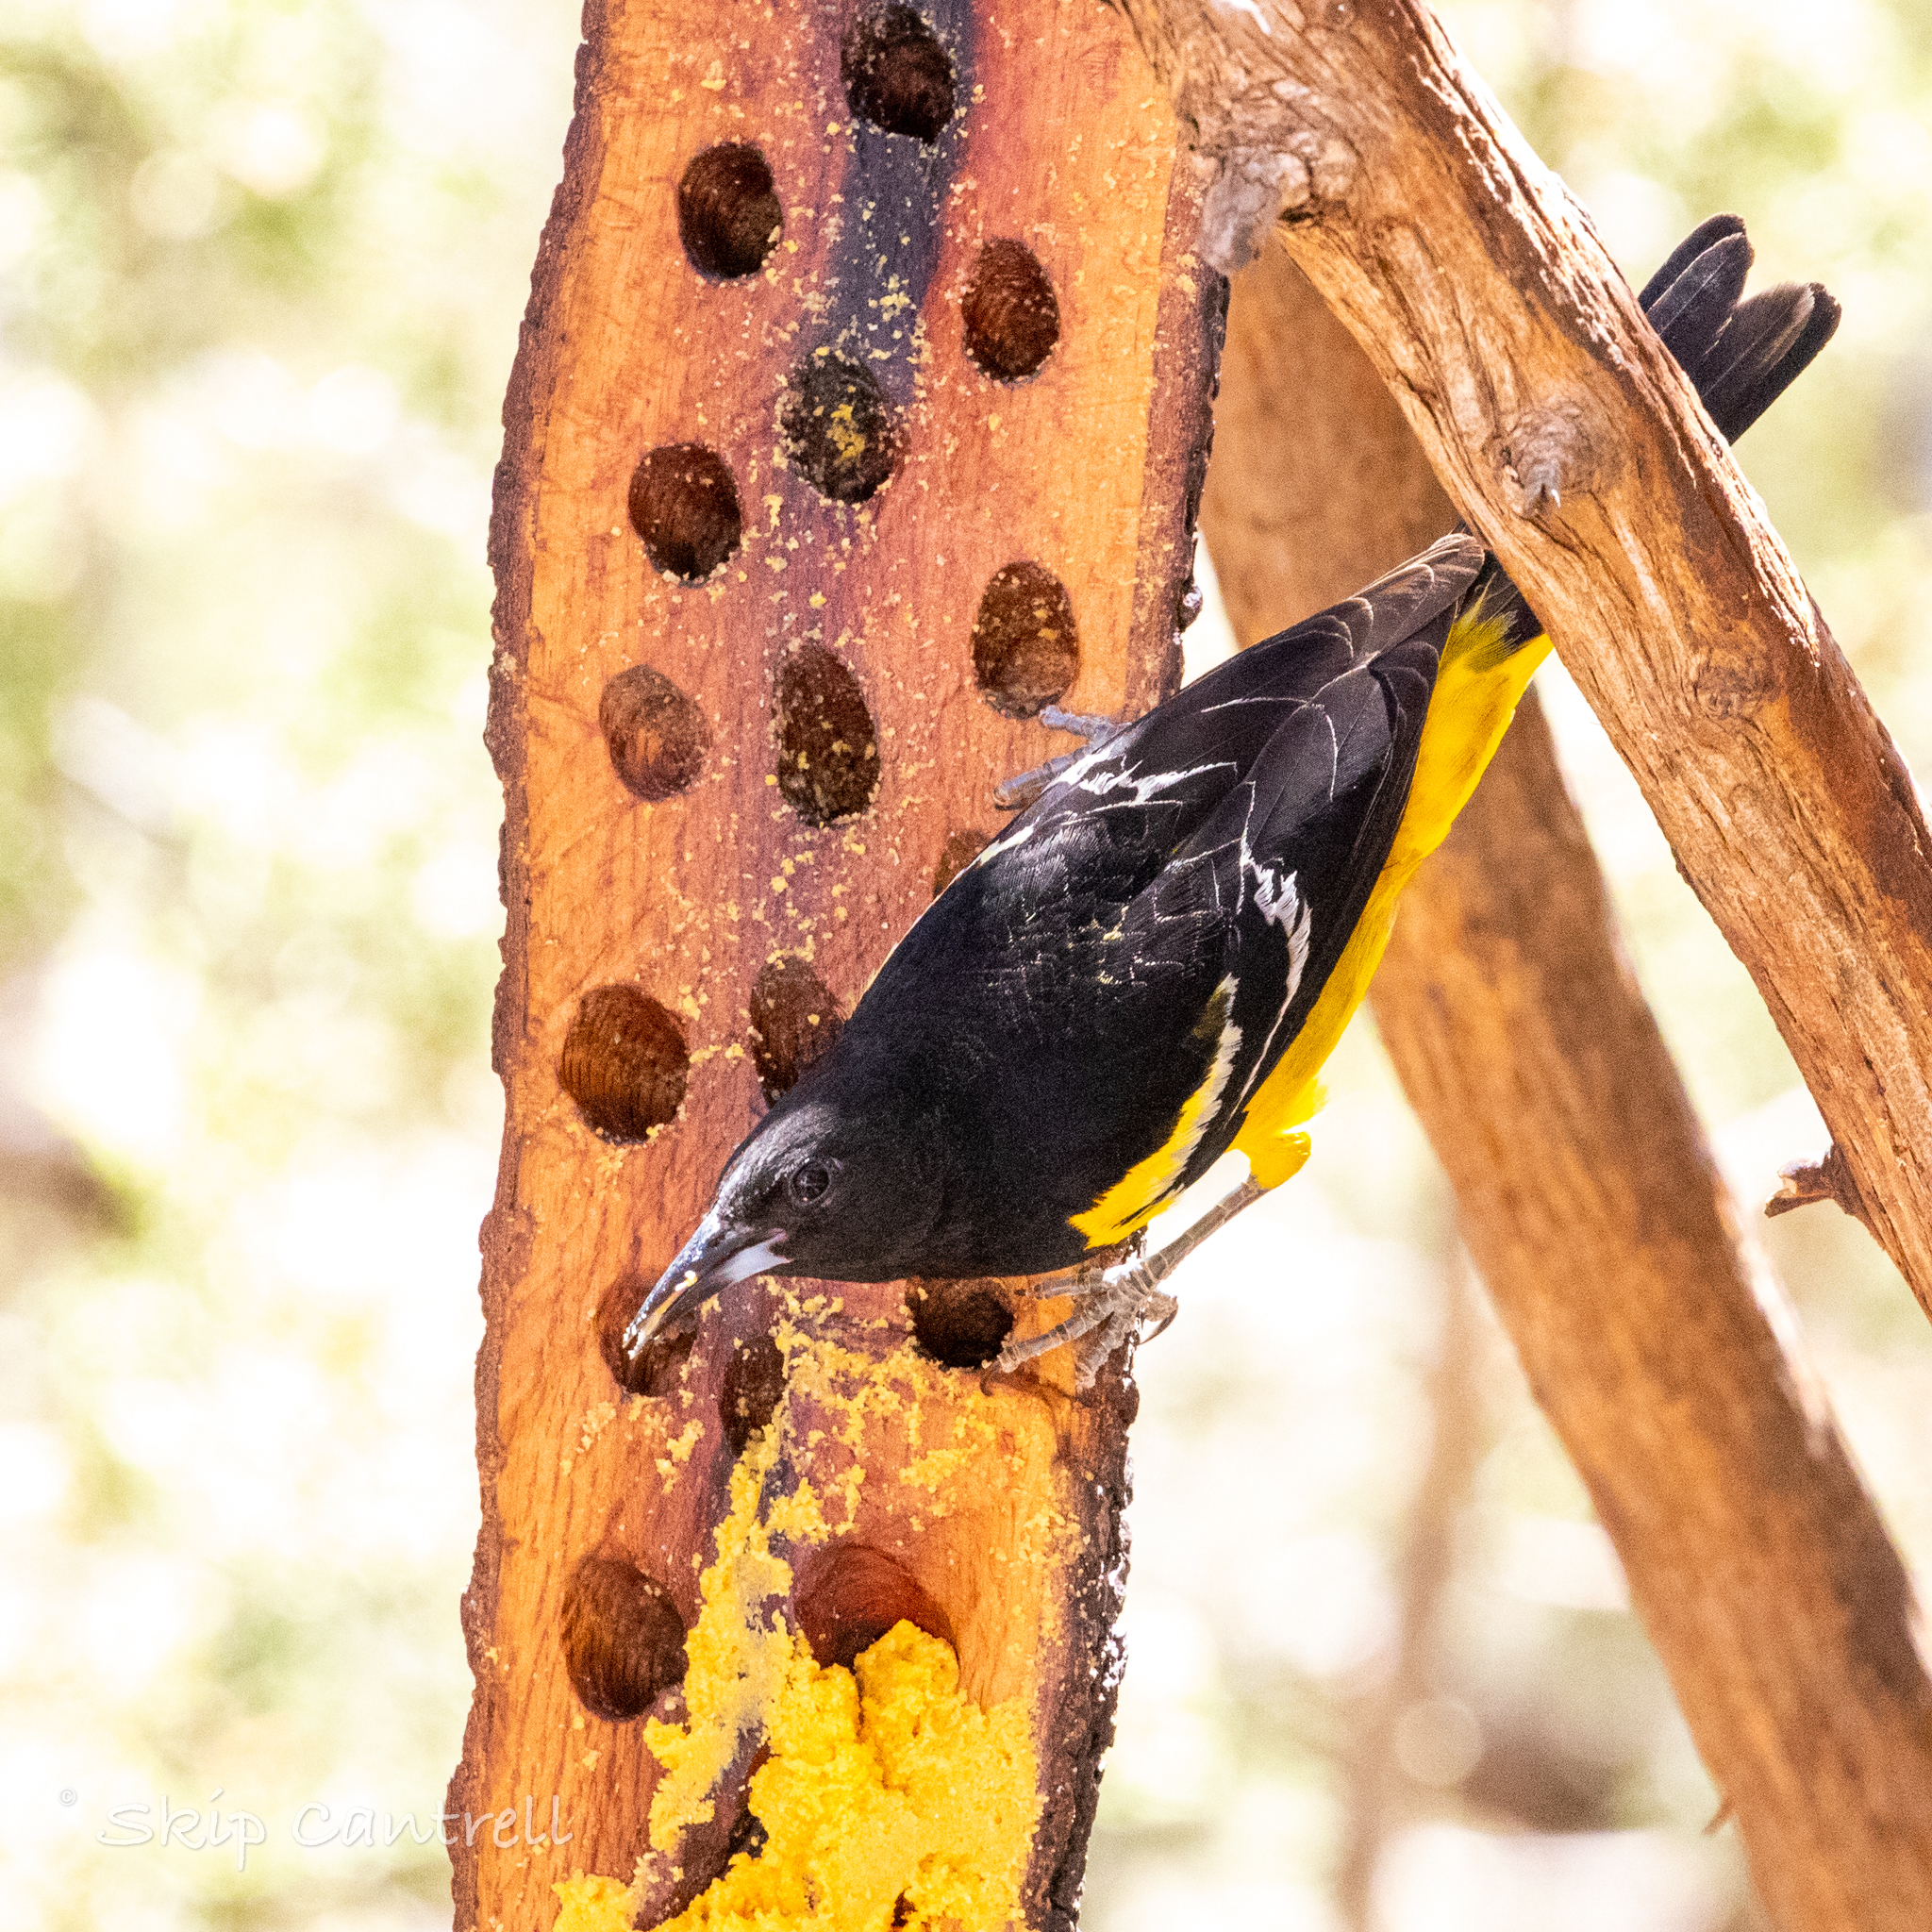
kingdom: Animalia
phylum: Chordata
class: Aves
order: Passeriformes
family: Icteridae
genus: Icterus
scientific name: Icterus parisorum
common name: Scott's oriole
